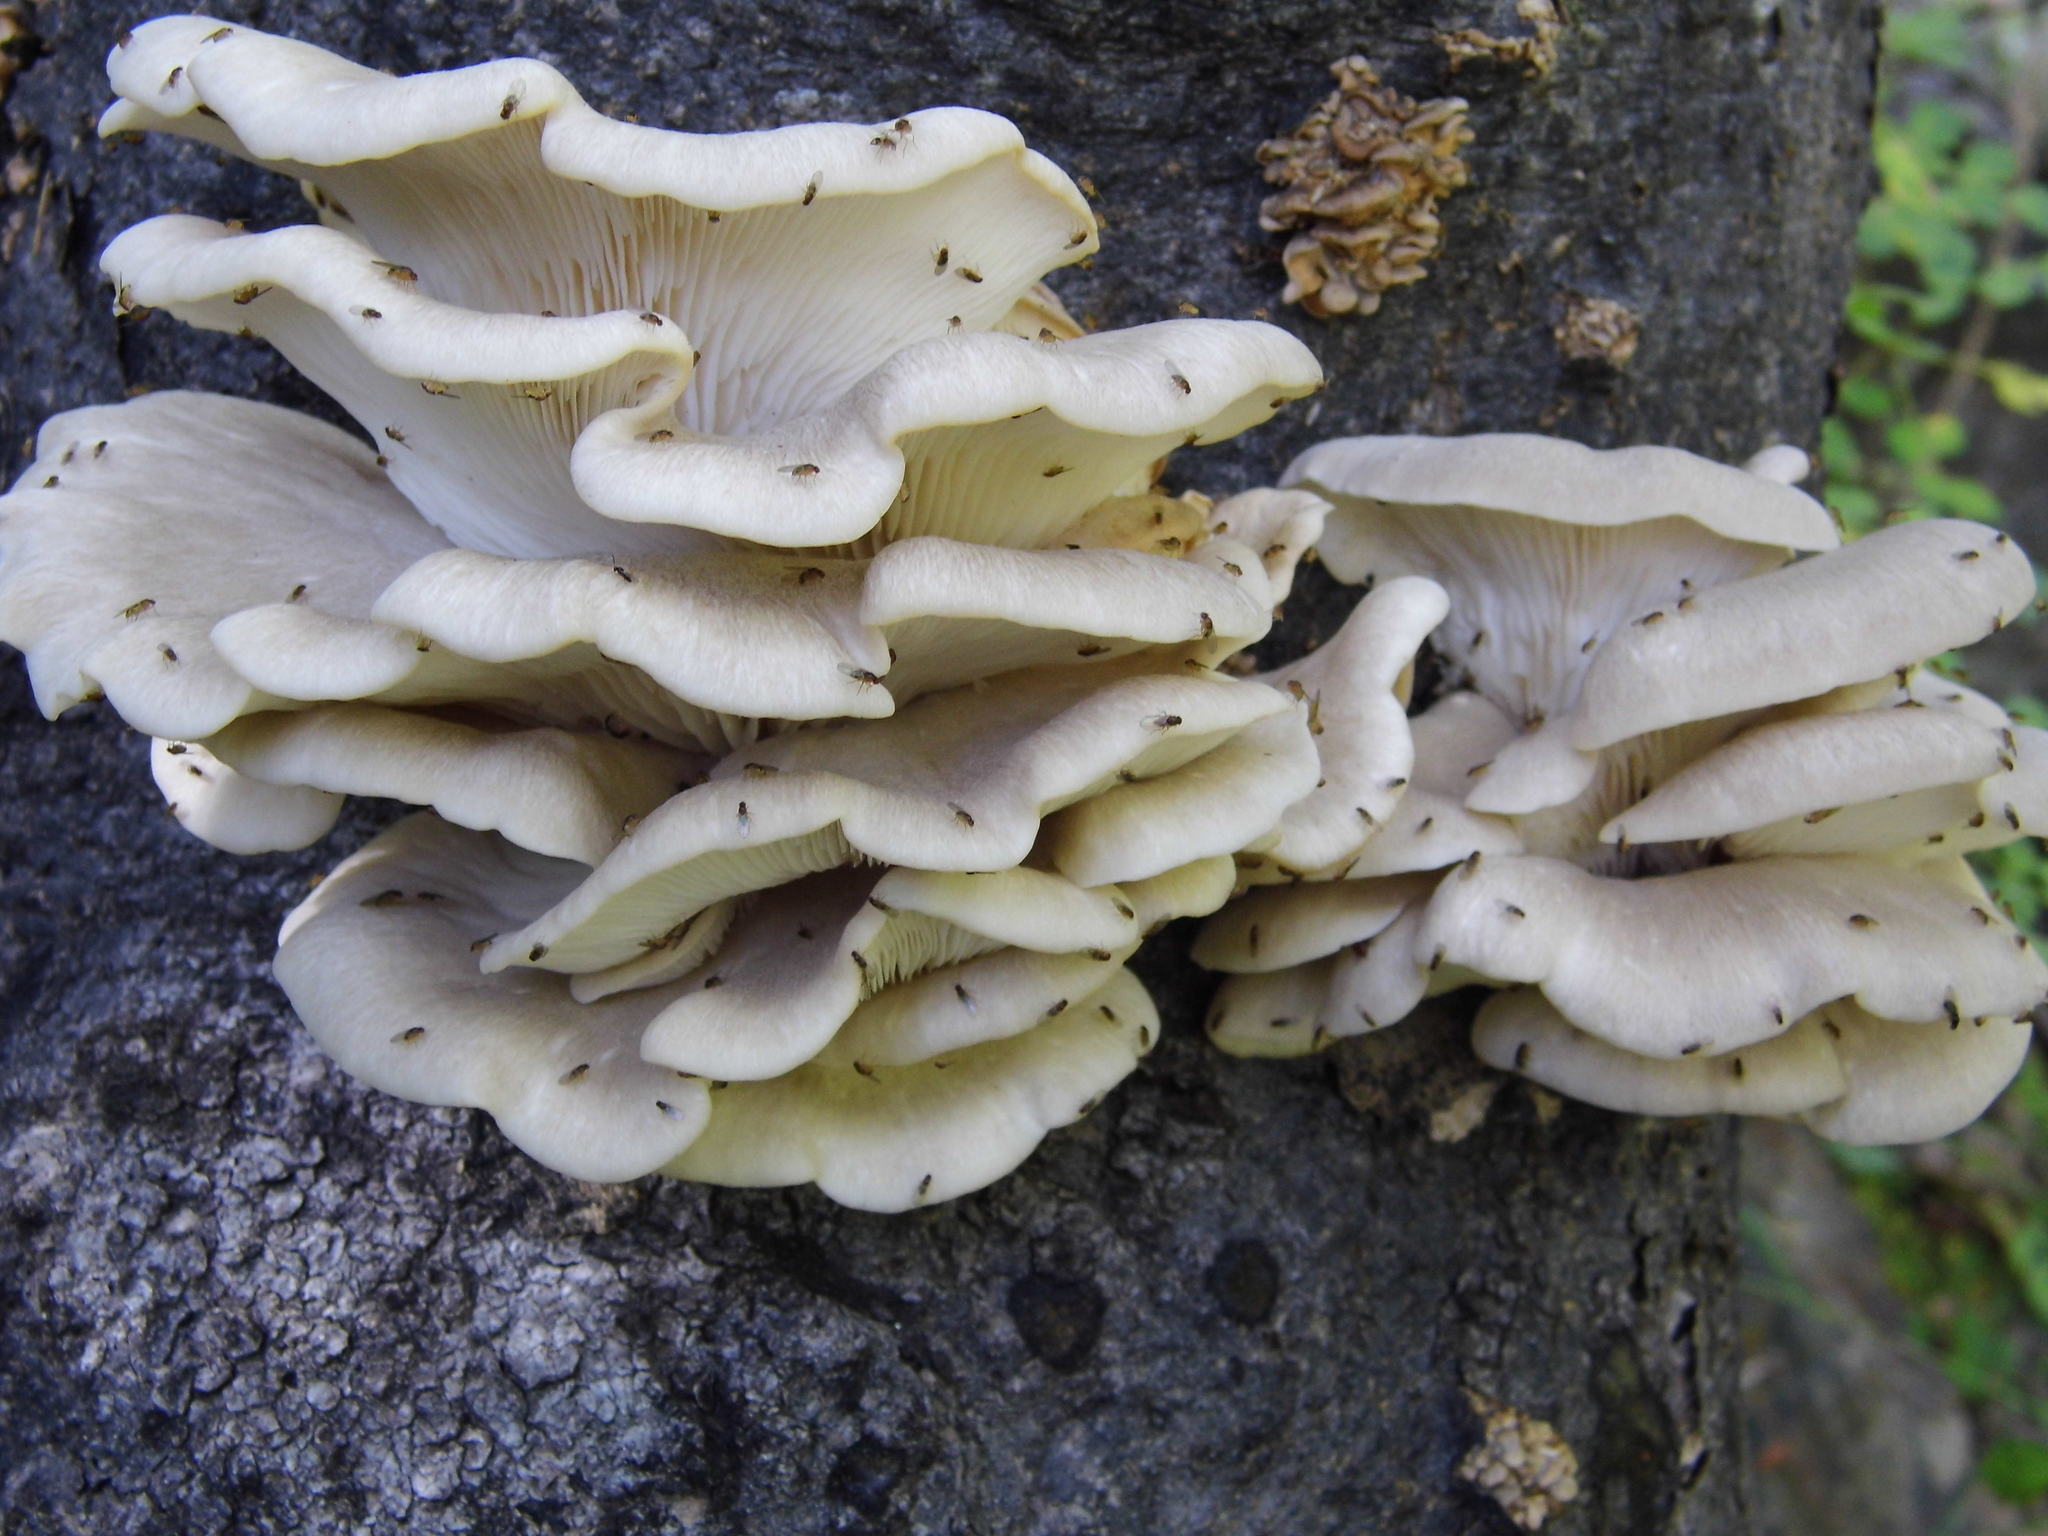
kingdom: Fungi
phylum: Basidiomycota
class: Agaricomycetes
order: Agaricales
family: Pleurotaceae
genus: Pleurotus
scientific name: Pleurotus ostreatus
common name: Oyster mushroom
